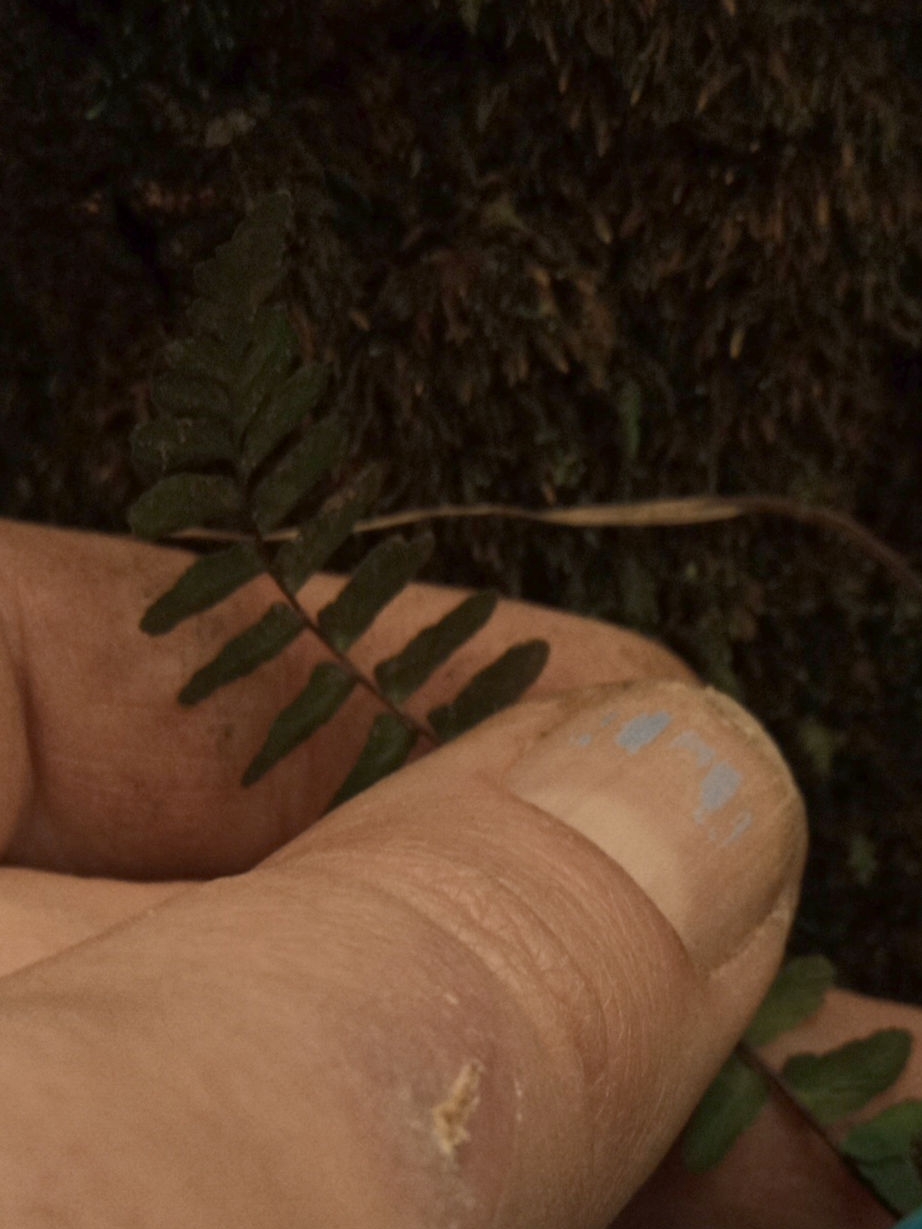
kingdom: Plantae
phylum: Tracheophyta
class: Polypodiopsida
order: Polypodiales
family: Aspleniaceae
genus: Asplenium
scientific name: Asplenium platyneuron
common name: Ebony spleenwort
